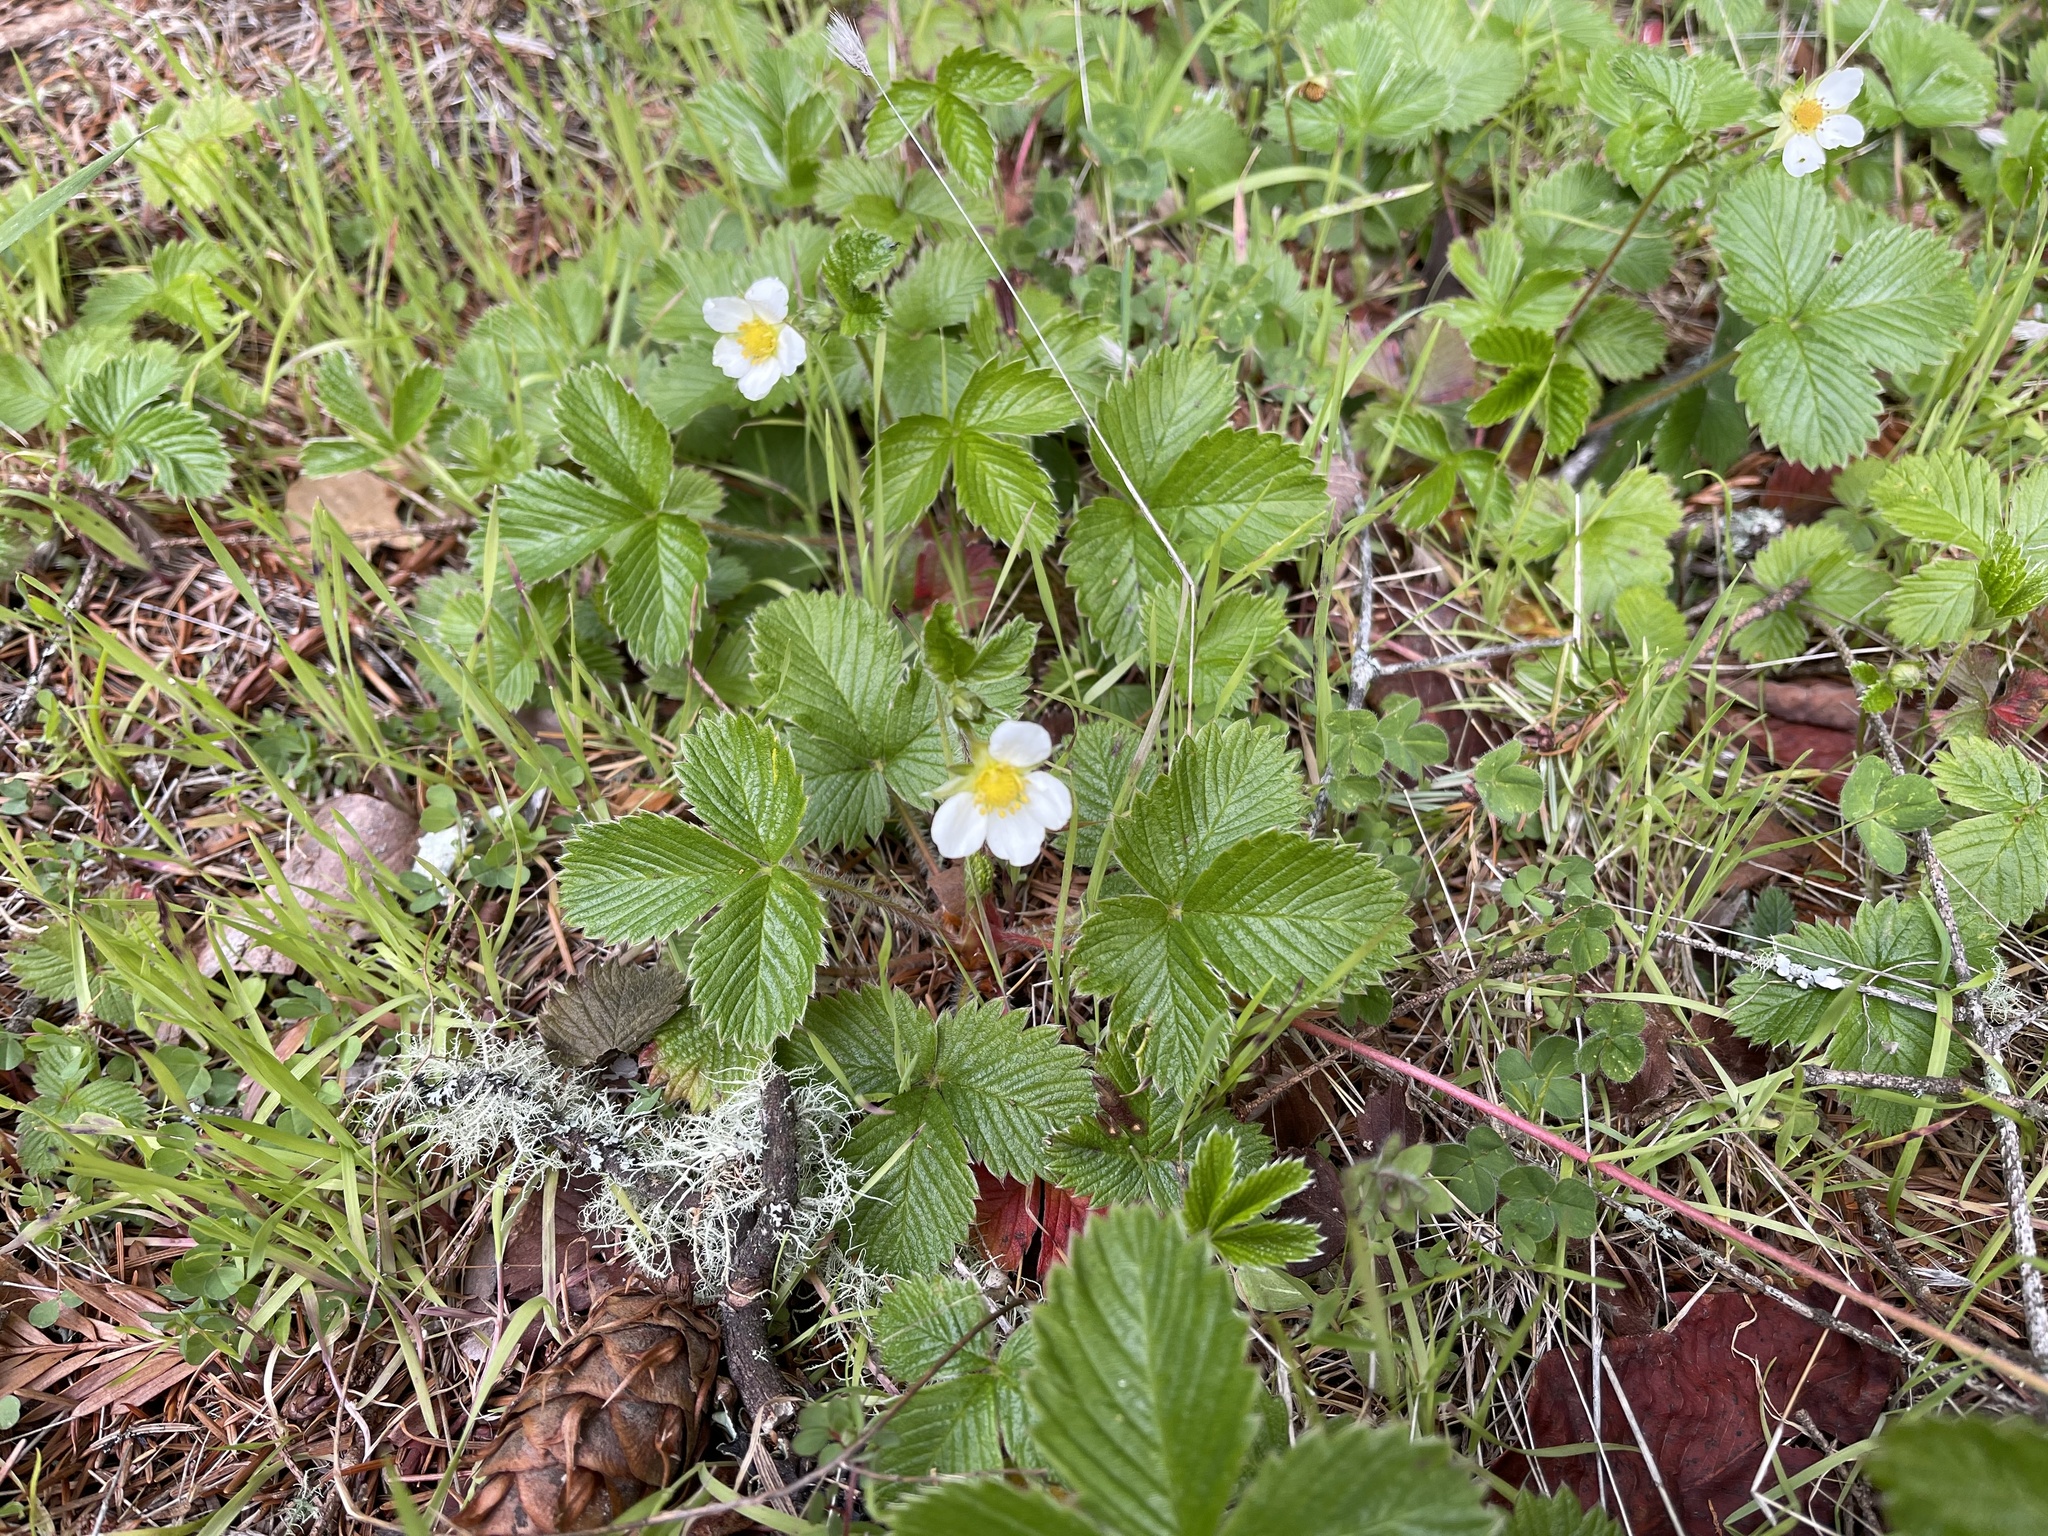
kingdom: Plantae
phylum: Tracheophyta
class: Magnoliopsida
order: Rosales
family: Rosaceae
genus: Fragaria
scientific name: Fragaria vesca
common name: Wild strawberry
